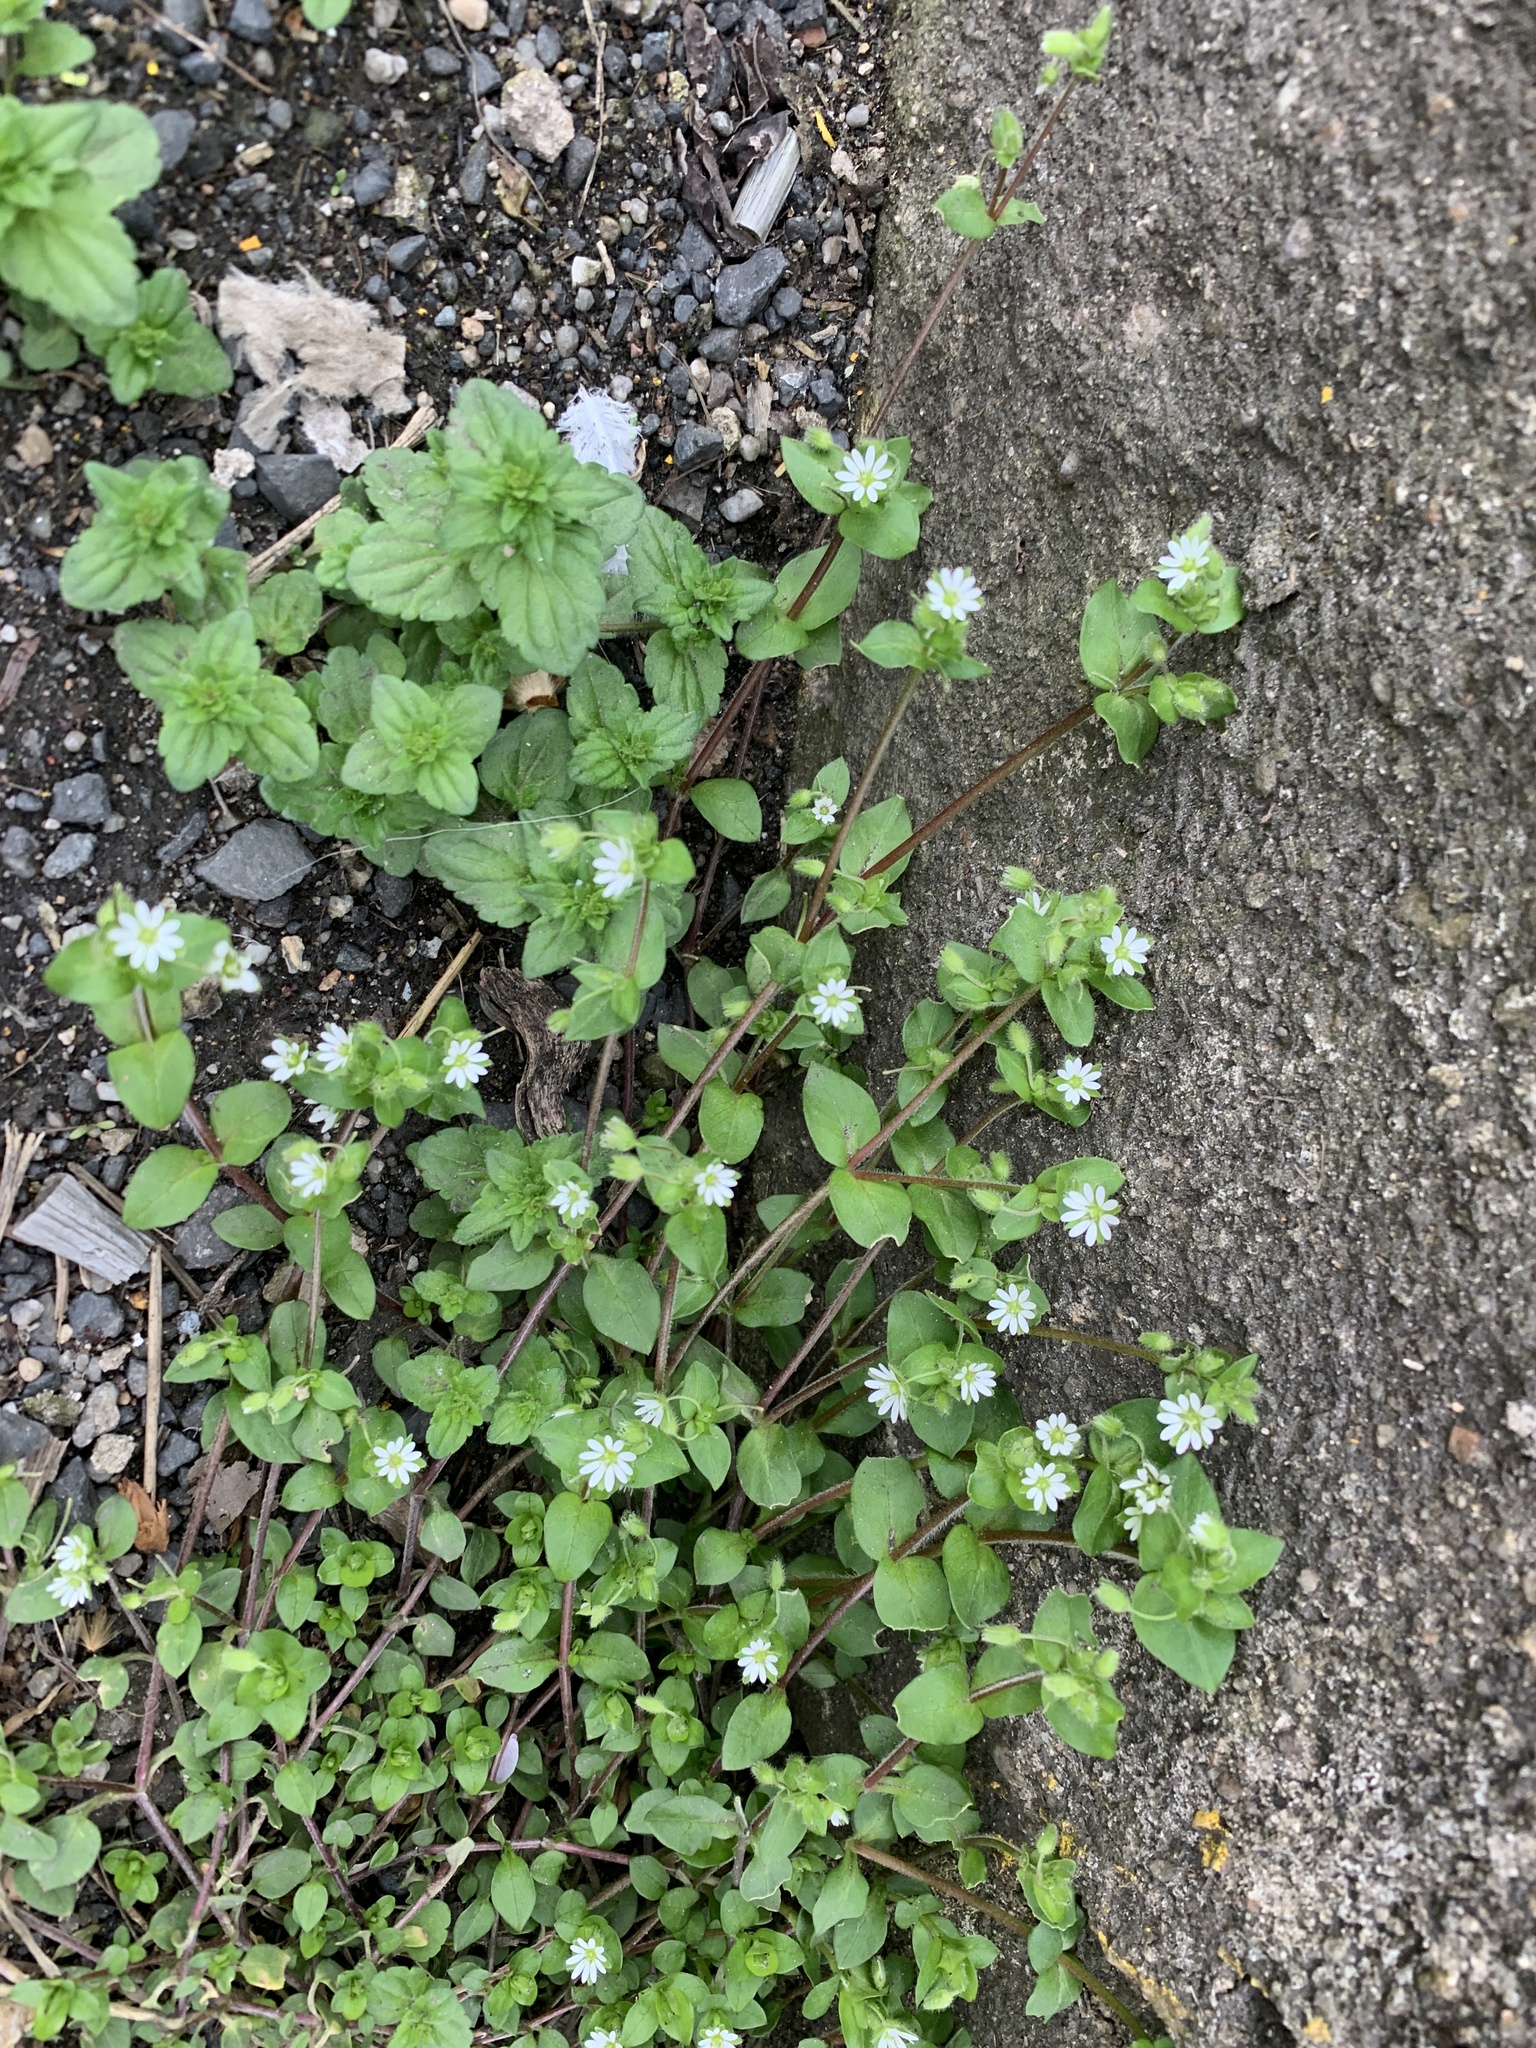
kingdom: Plantae
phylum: Tracheophyta
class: Magnoliopsida
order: Caryophyllales
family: Caryophyllaceae
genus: Stellaria
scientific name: Stellaria media
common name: Common chickweed
